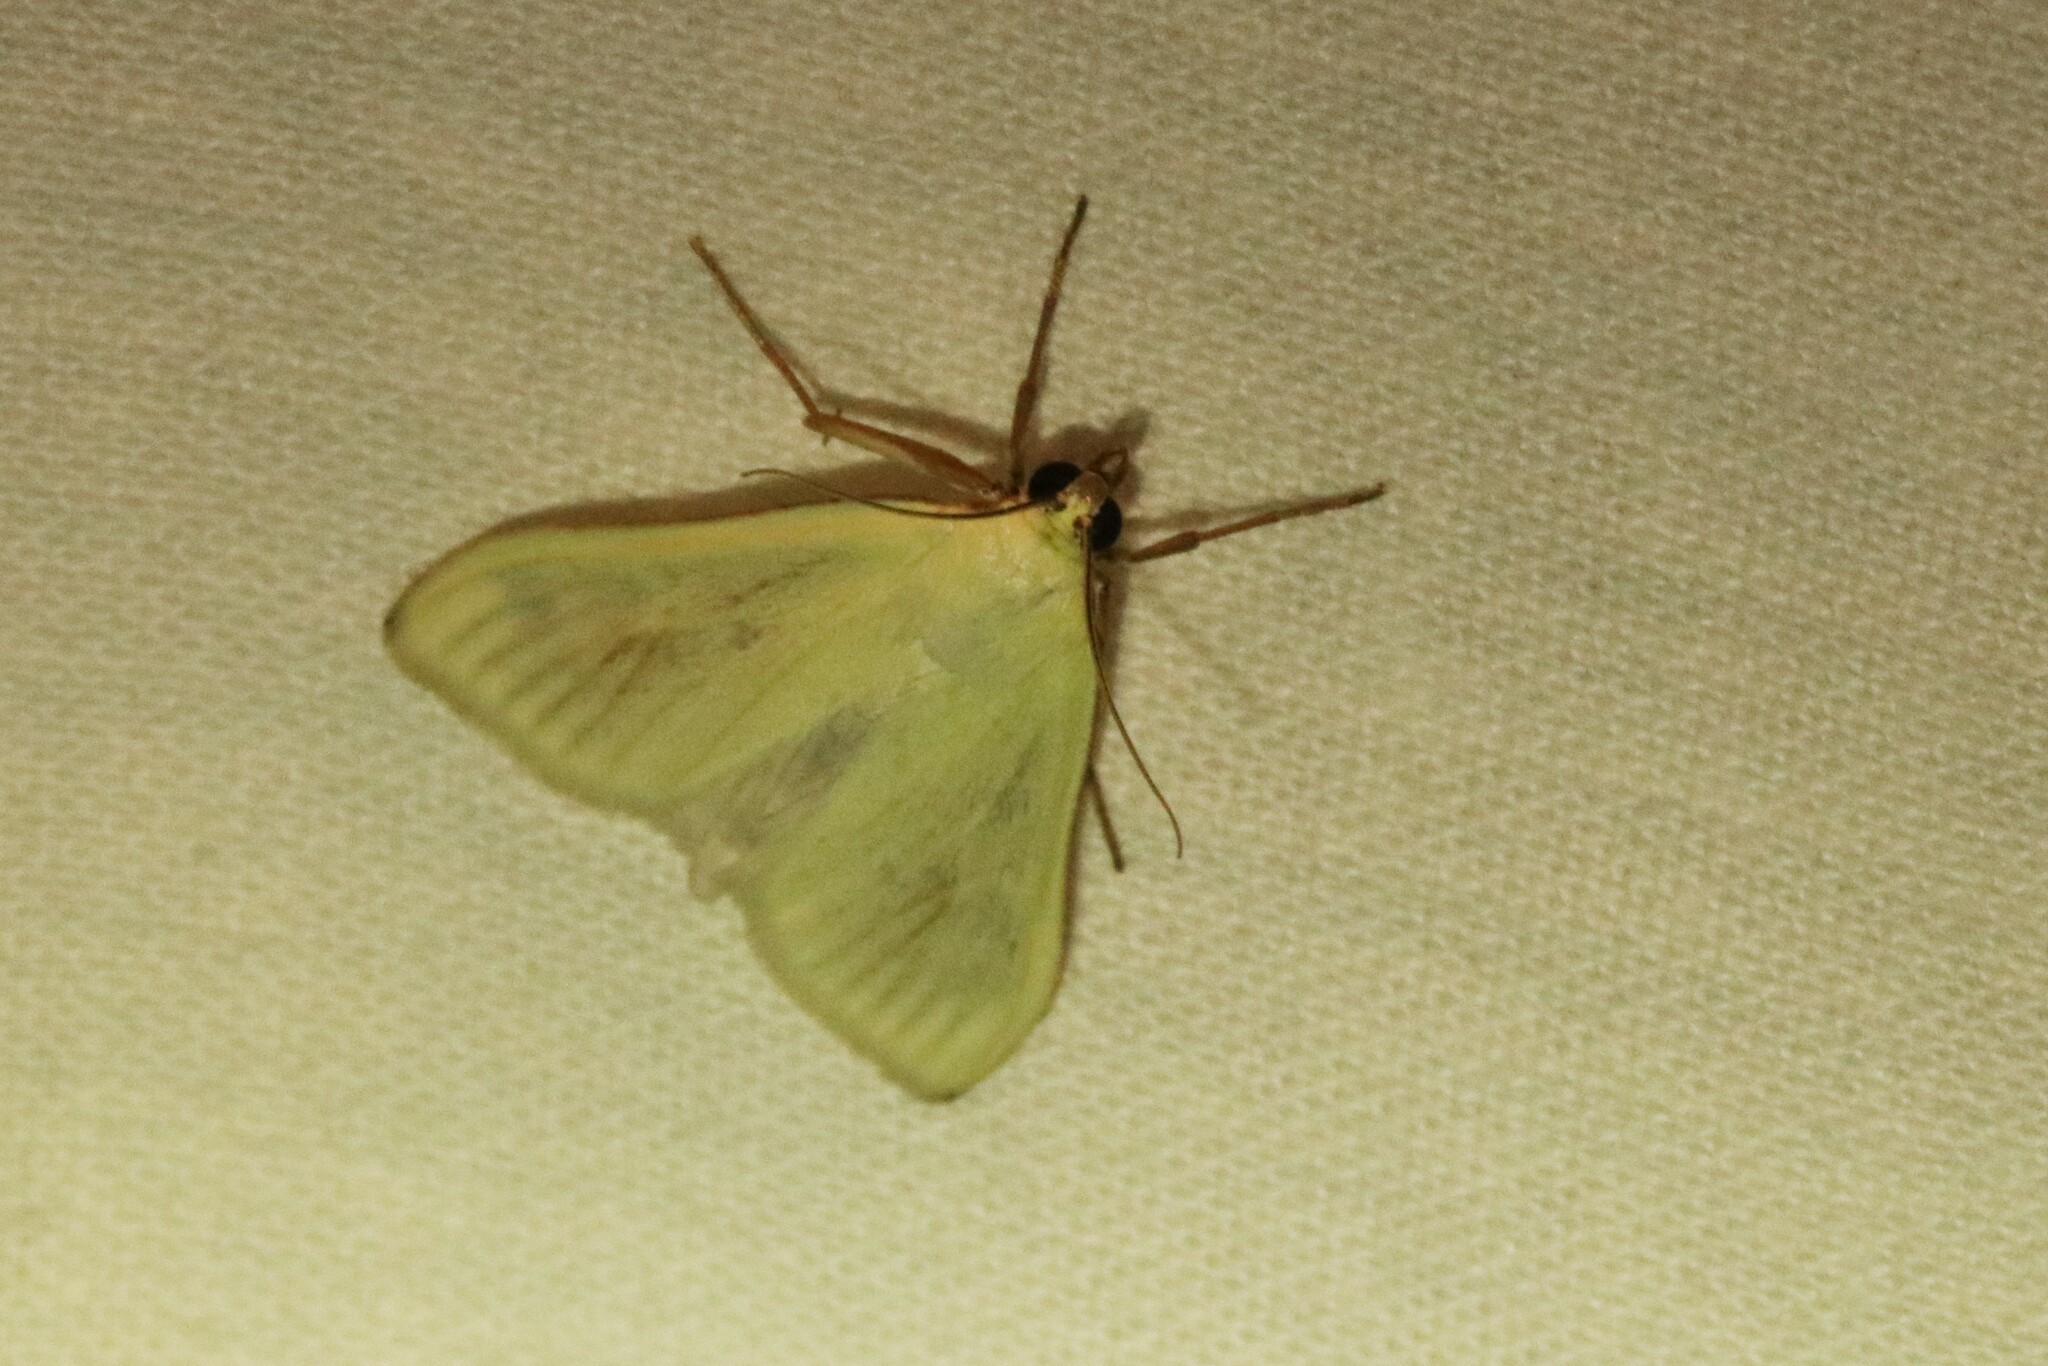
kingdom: Animalia
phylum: Arthropoda
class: Insecta
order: Lepidoptera
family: Crambidae
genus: Sitochroa
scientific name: Sitochroa palealis
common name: Greenish-yellow sitochroa moth
